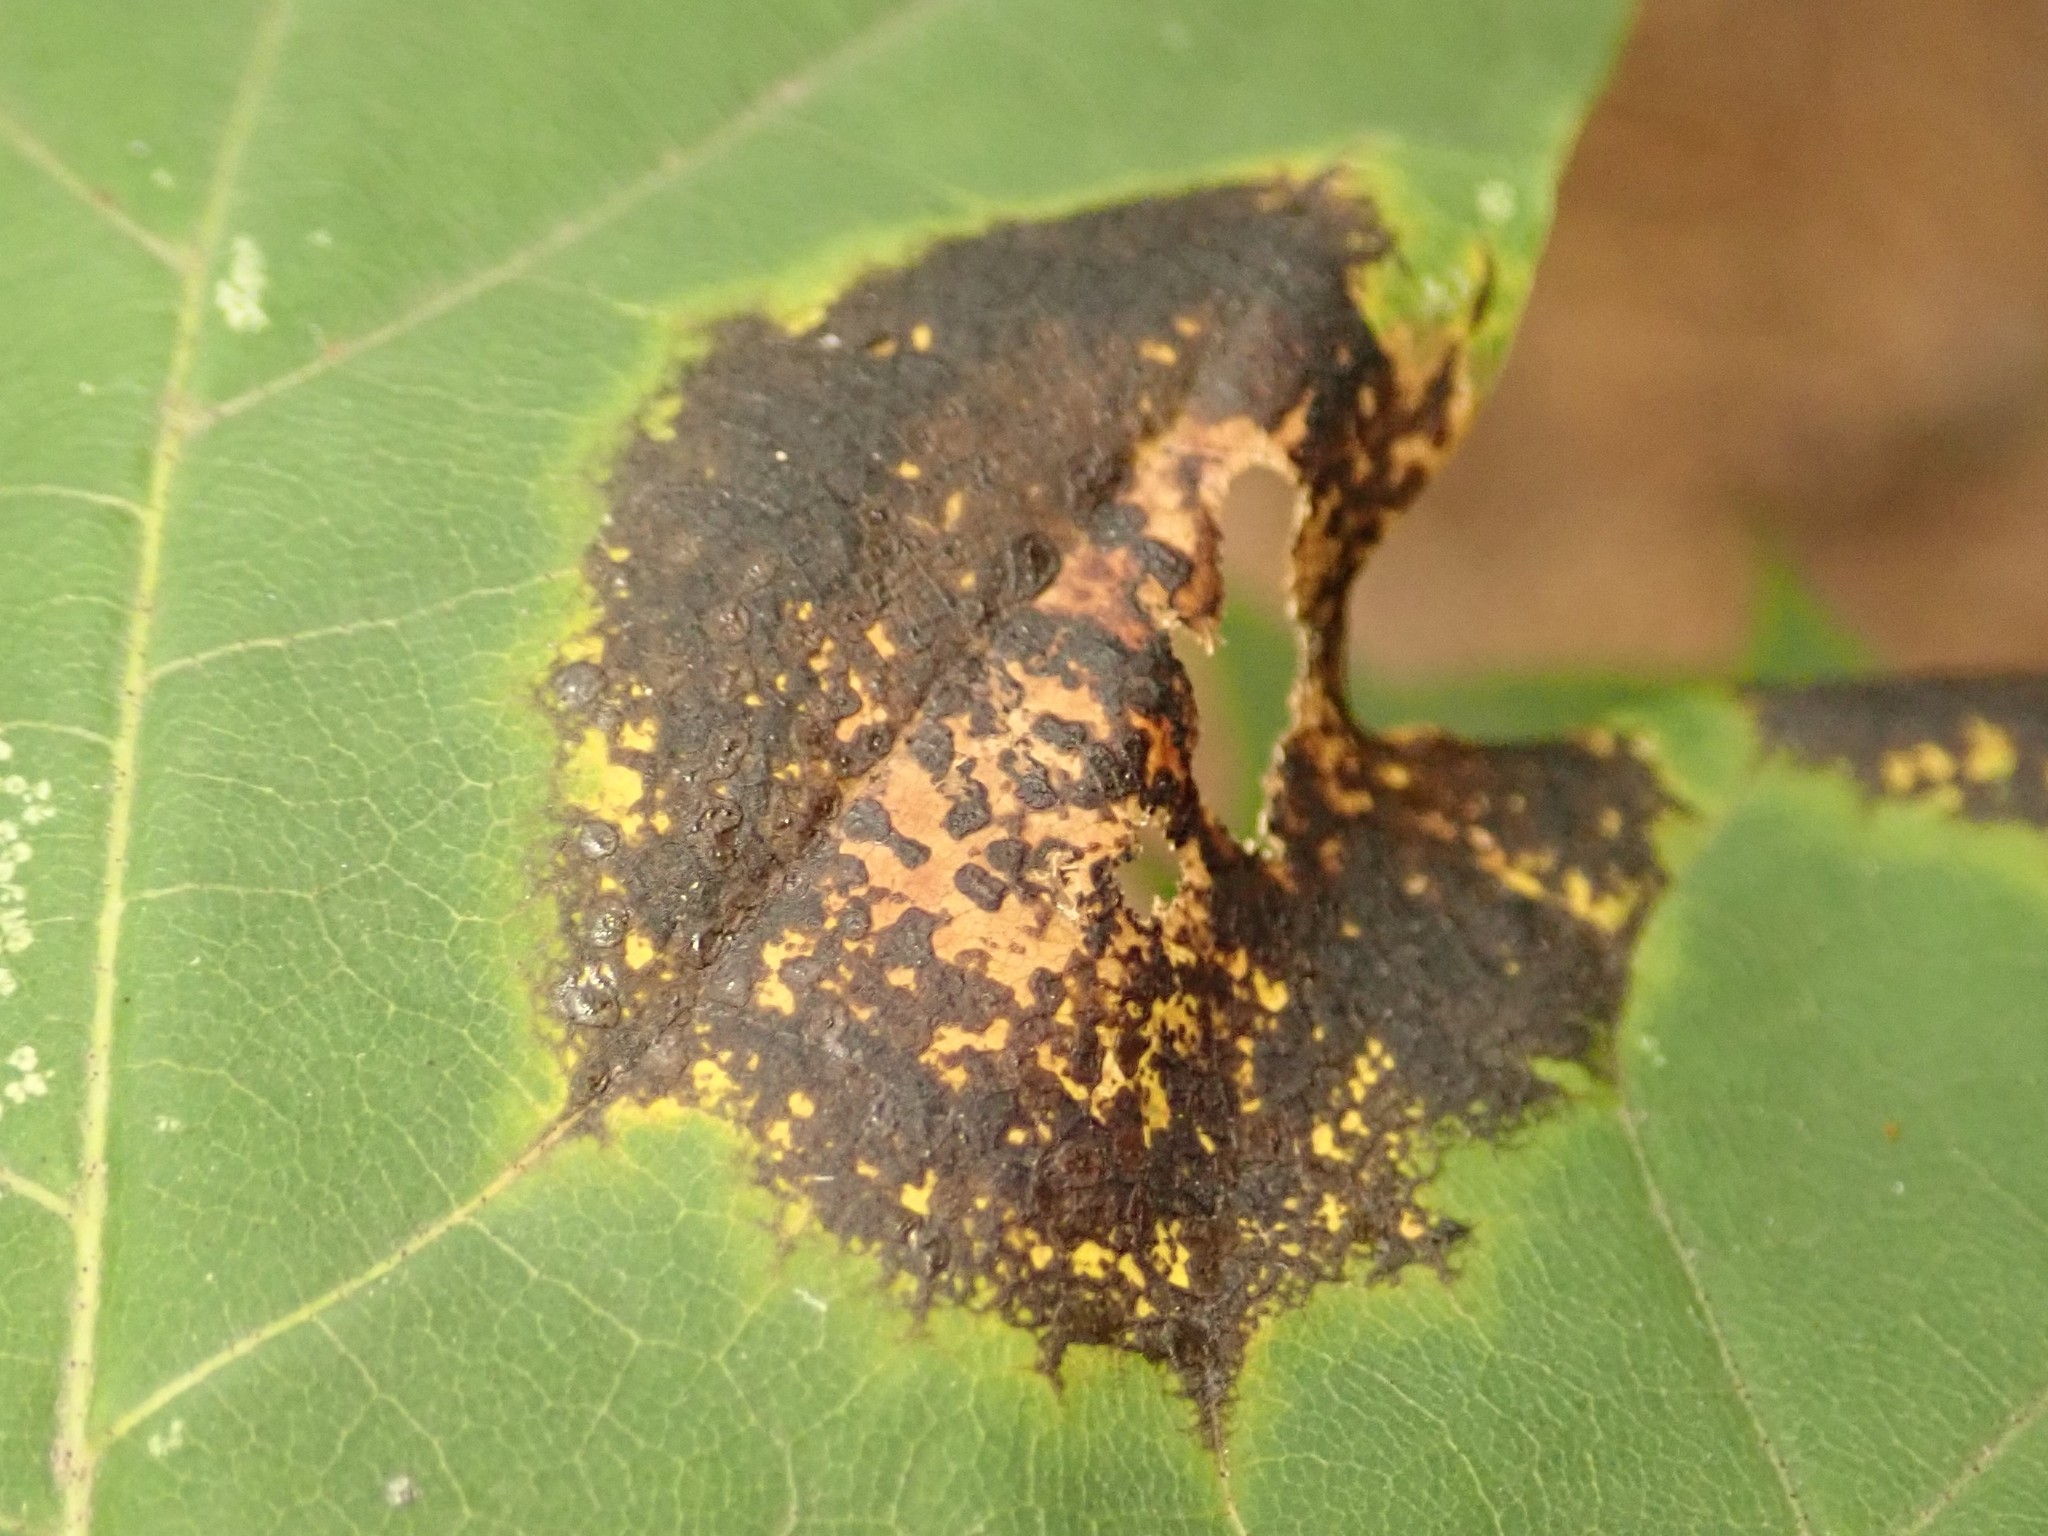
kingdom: Fungi
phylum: Ascomycota
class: Leotiomycetes
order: Rhytismatales
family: Rhytismataceae
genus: Rhytisma
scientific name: Rhytisma acerinum
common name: European tar spot
